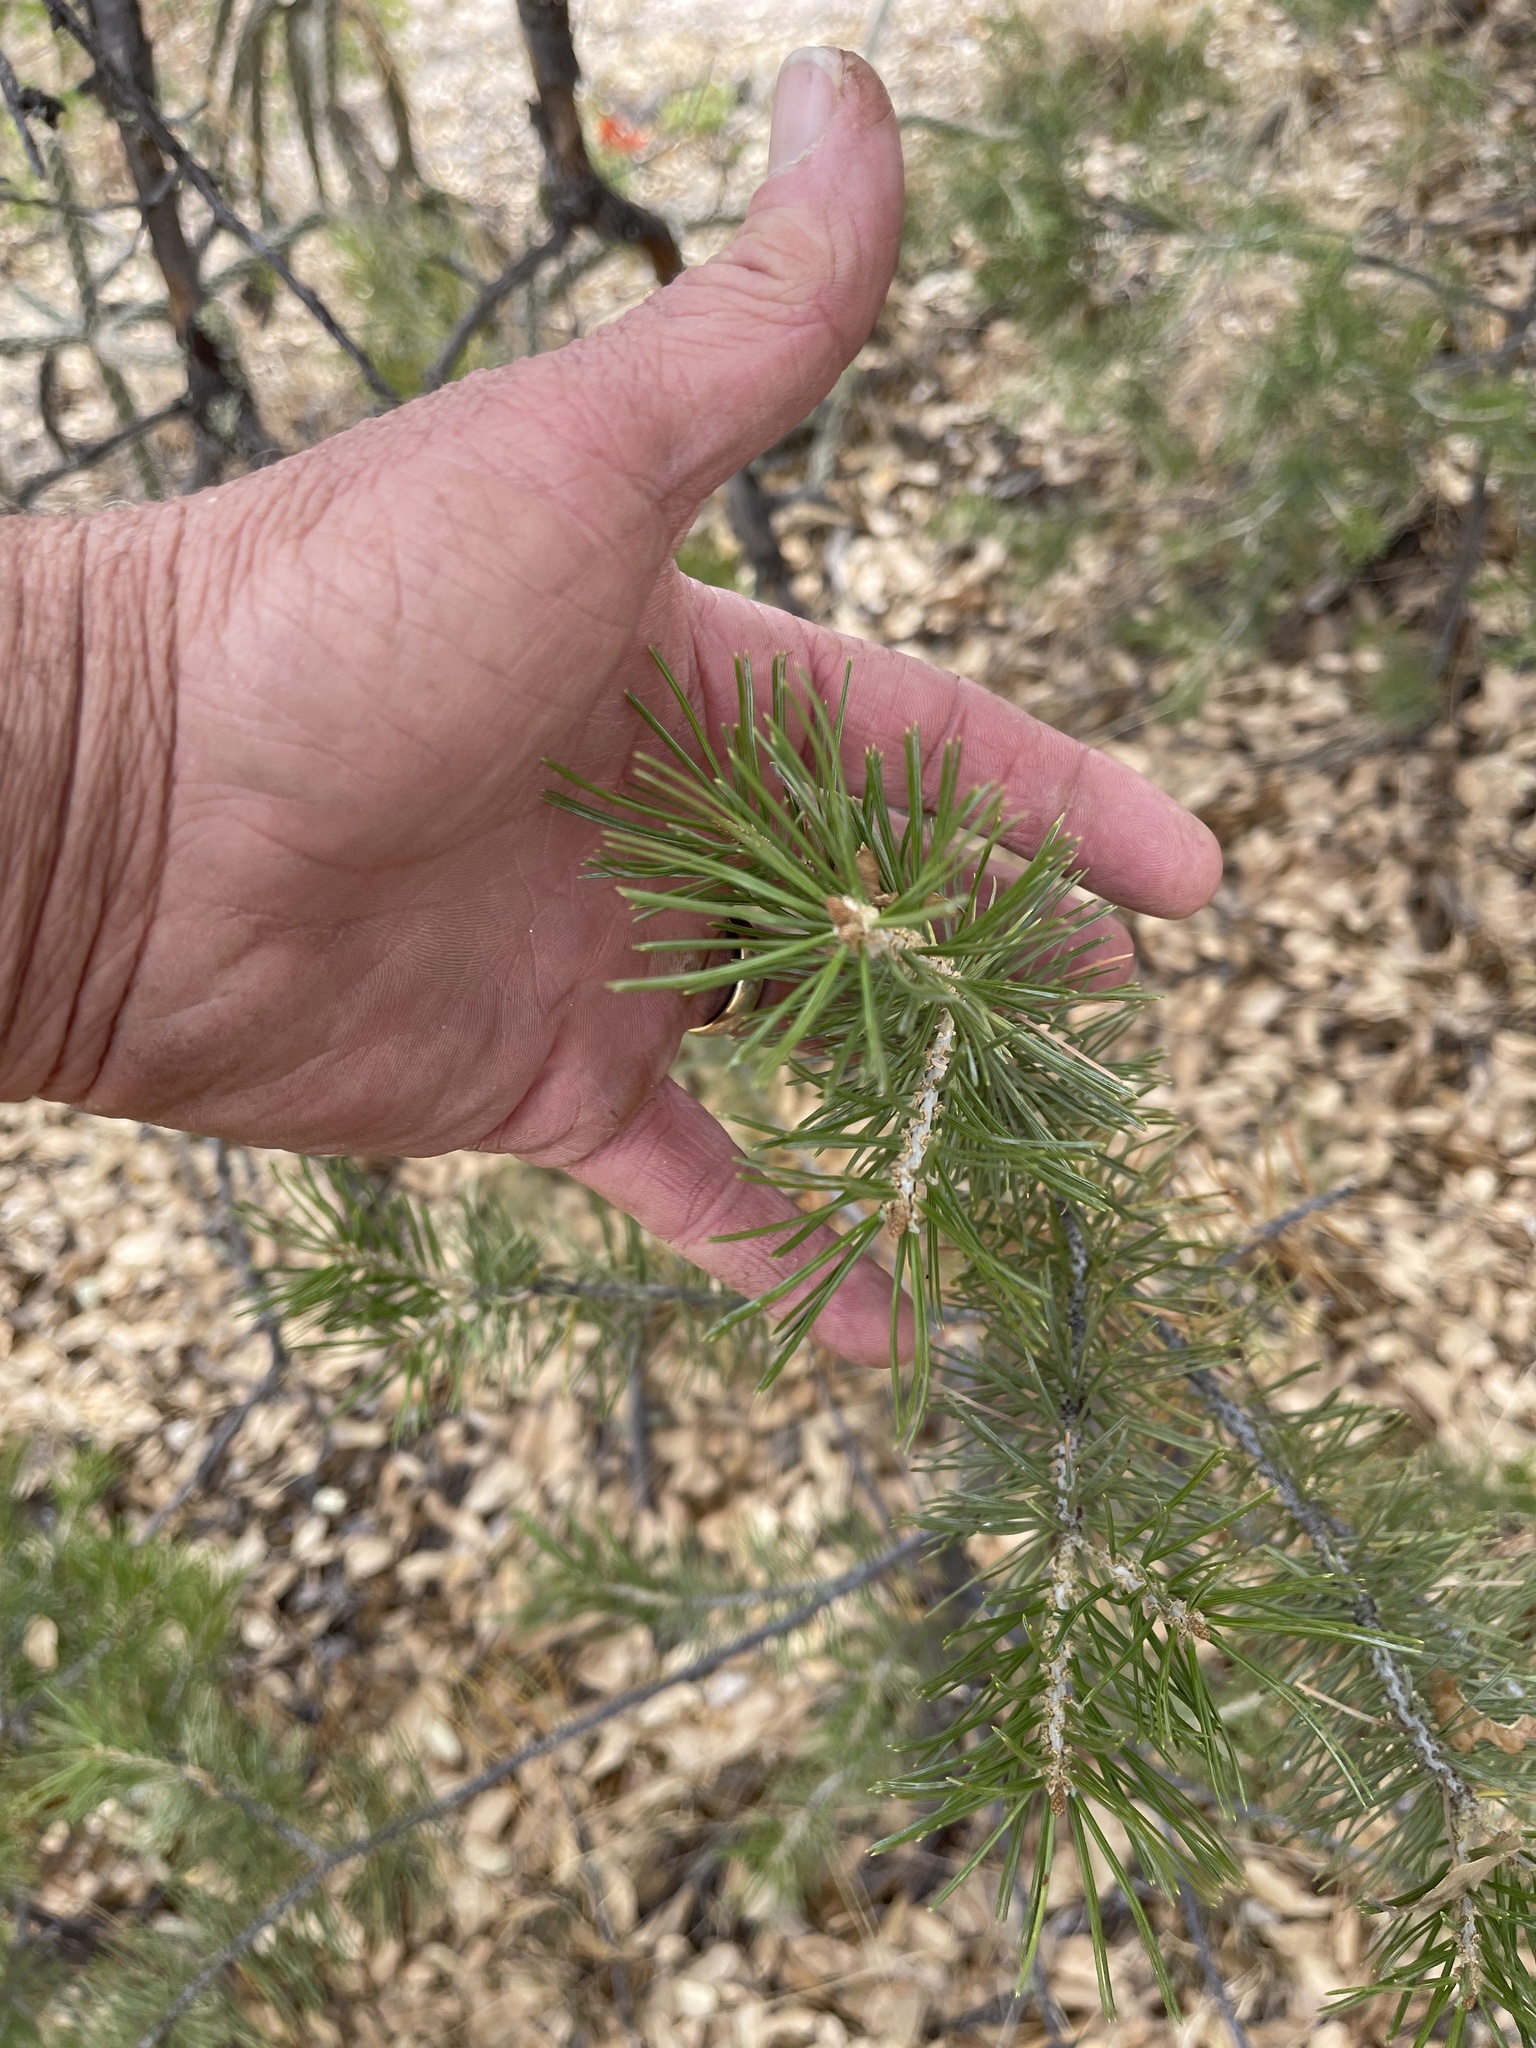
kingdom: Plantae
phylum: Tracheophyta
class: Pinopsida
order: Pinales
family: Pinaceae
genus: Pinus
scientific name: Pinus edulis
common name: Colorado pinyon
